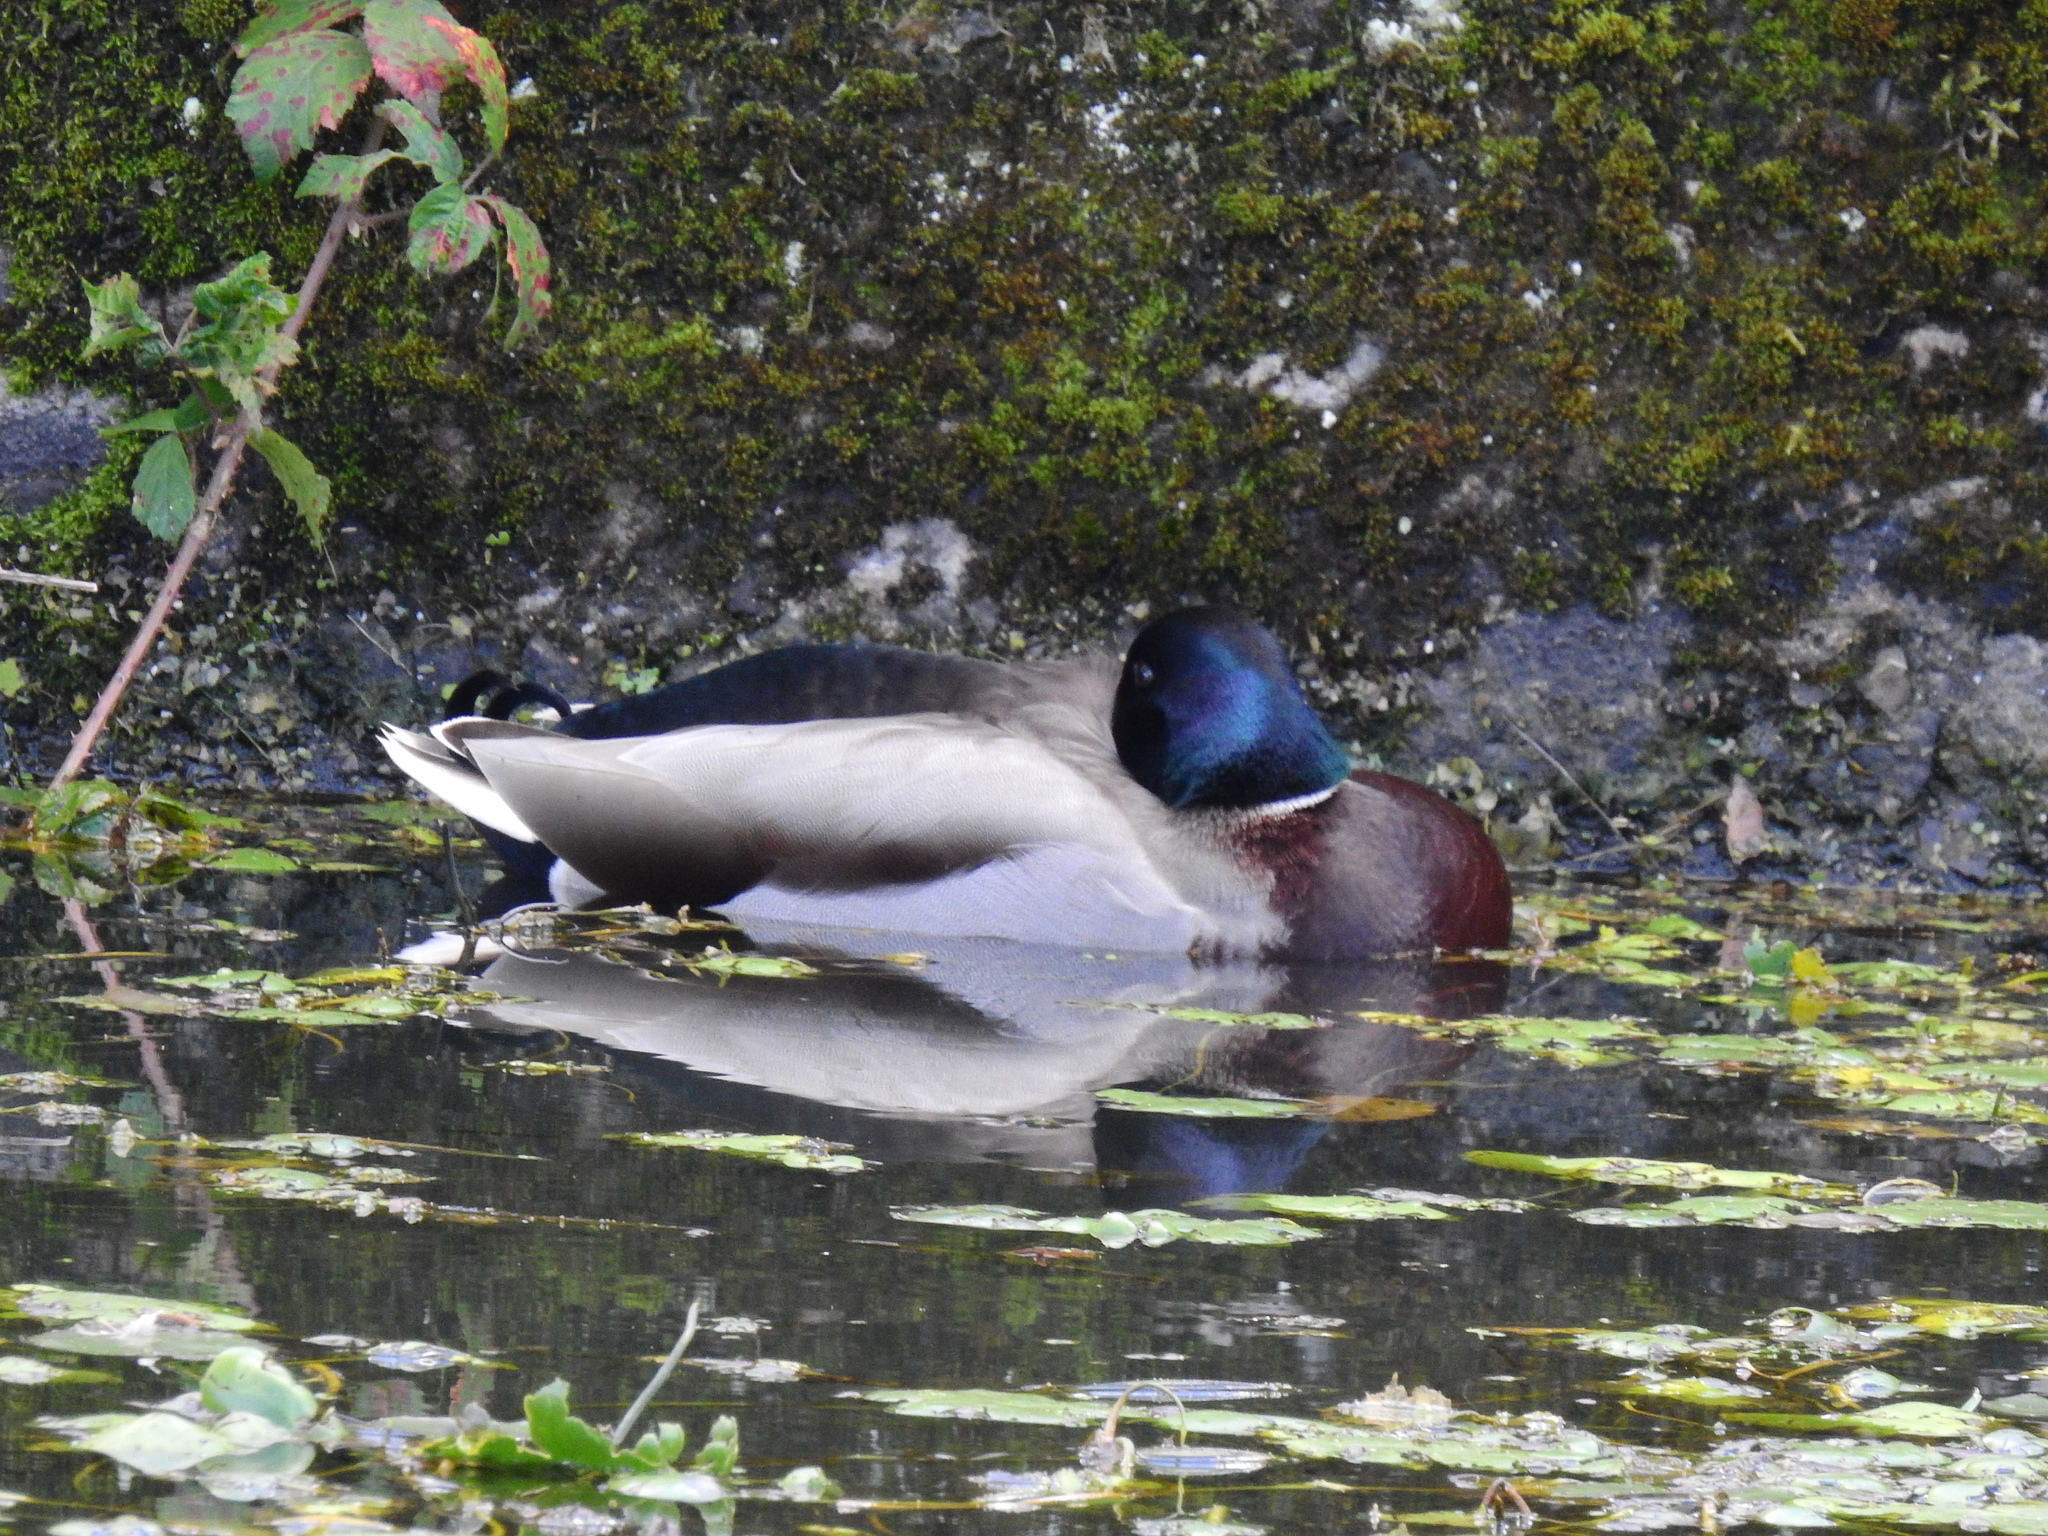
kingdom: Animalia
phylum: Chordata
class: Aves
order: Anseriformes
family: Anatidae
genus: Anas
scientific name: Anas platyrhynchos
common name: Mallard
